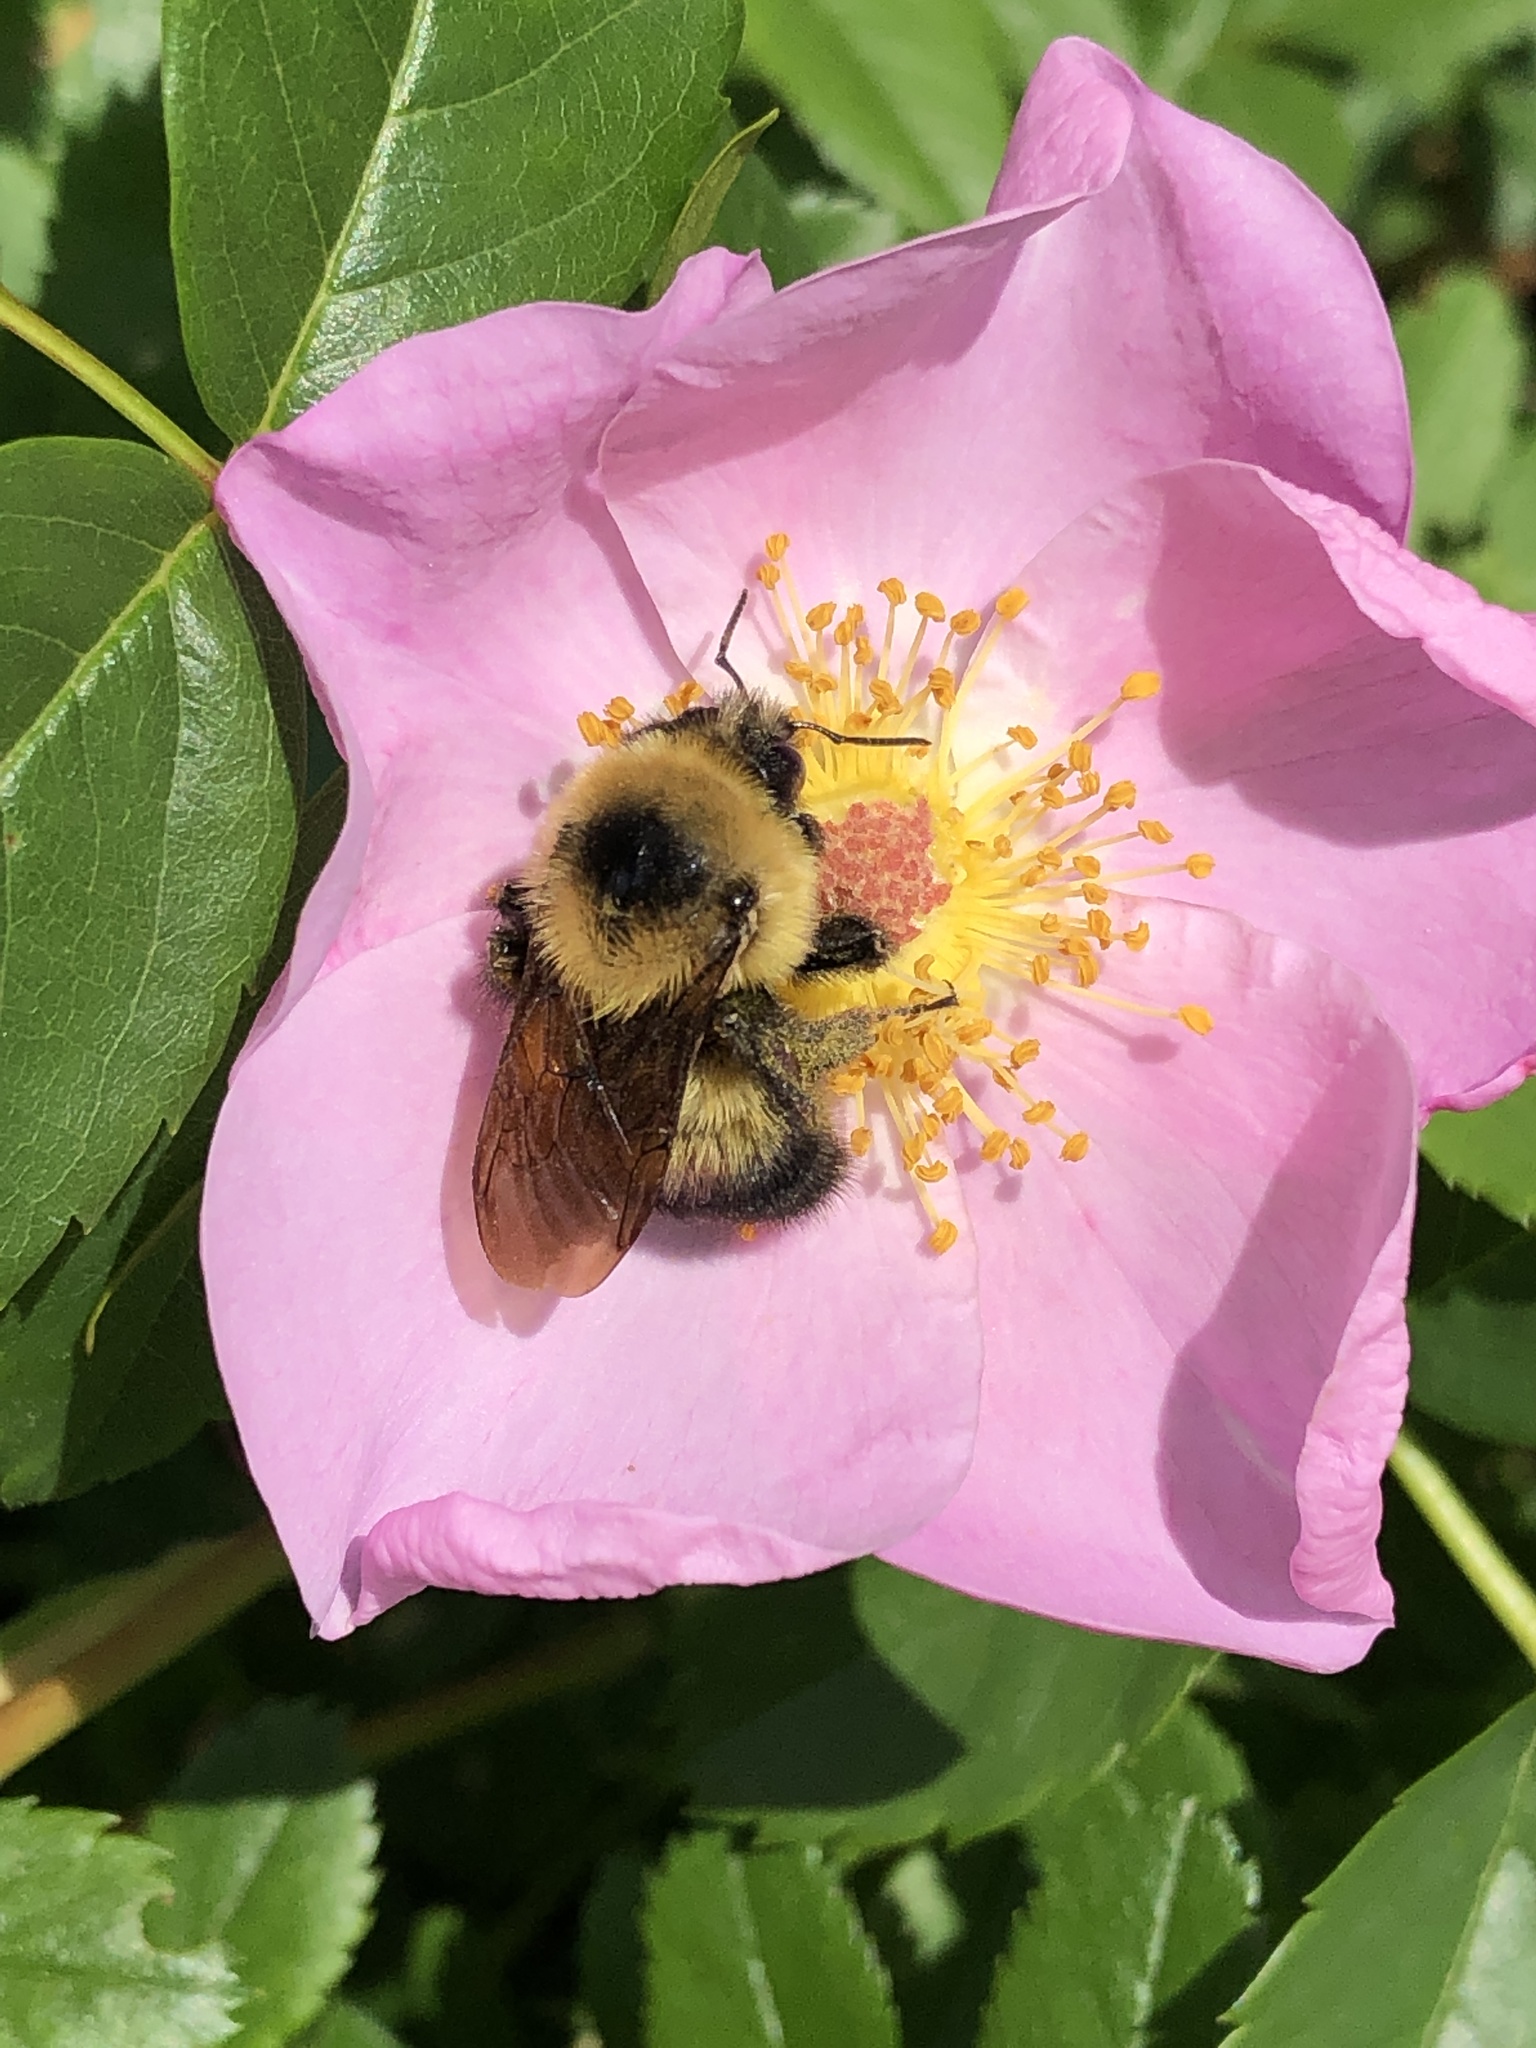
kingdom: Animalia
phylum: Arthropoda
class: Insecta
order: Hymenoptera
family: Apidae
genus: Bombus
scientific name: Bombus rufocinctus
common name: Red-belted bumble bee
